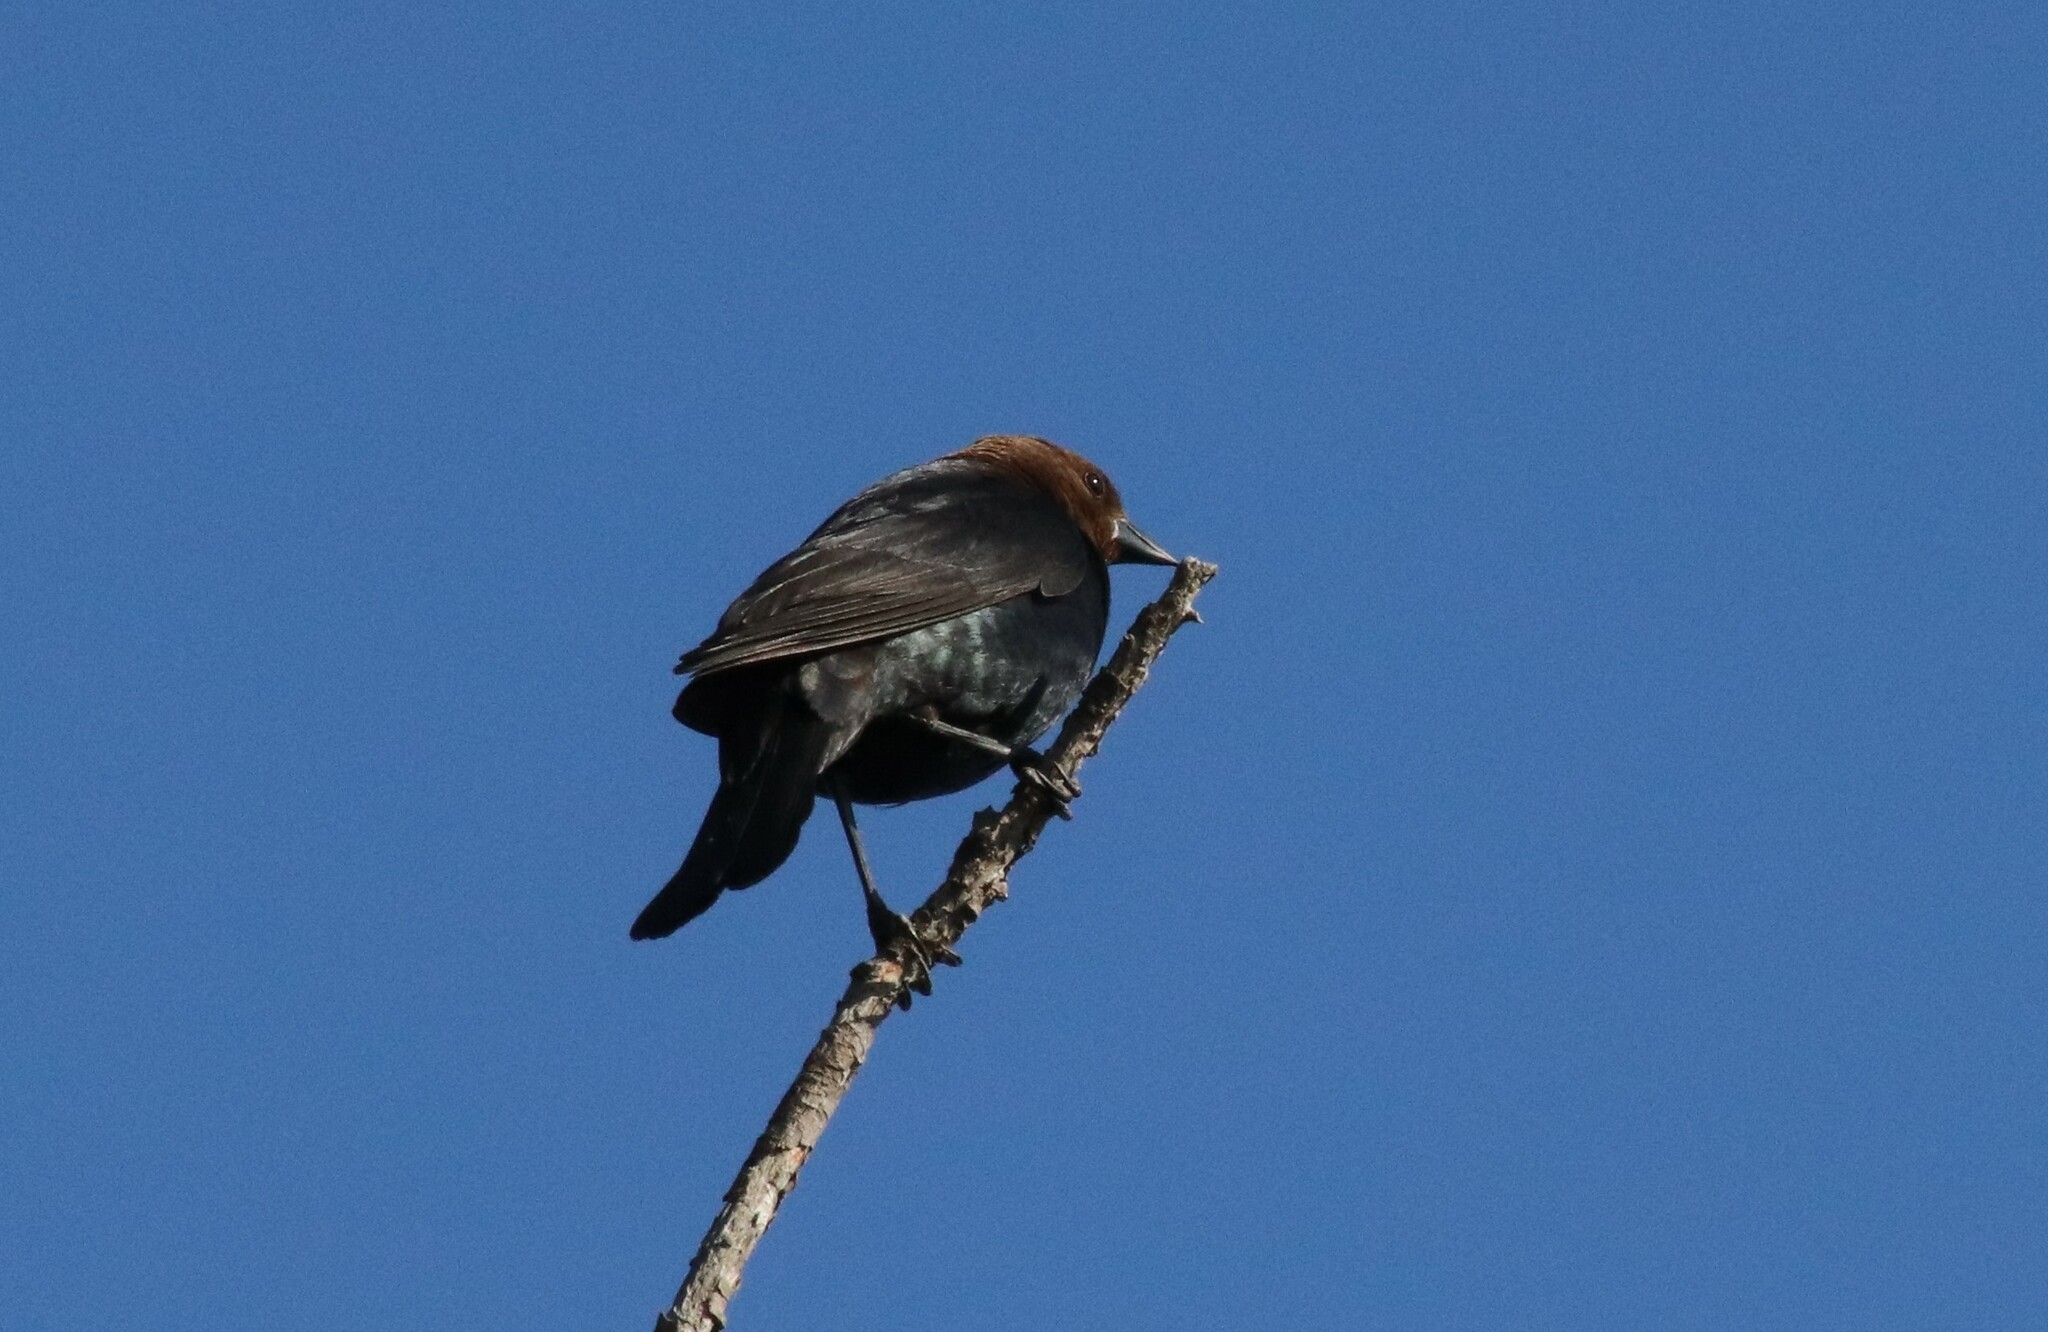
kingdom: Animalia
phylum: Chordata
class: Aves
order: Passeriformes
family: Icteridae
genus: Molothrus
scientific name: Molothrus ater
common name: Brown-headed cowbird
